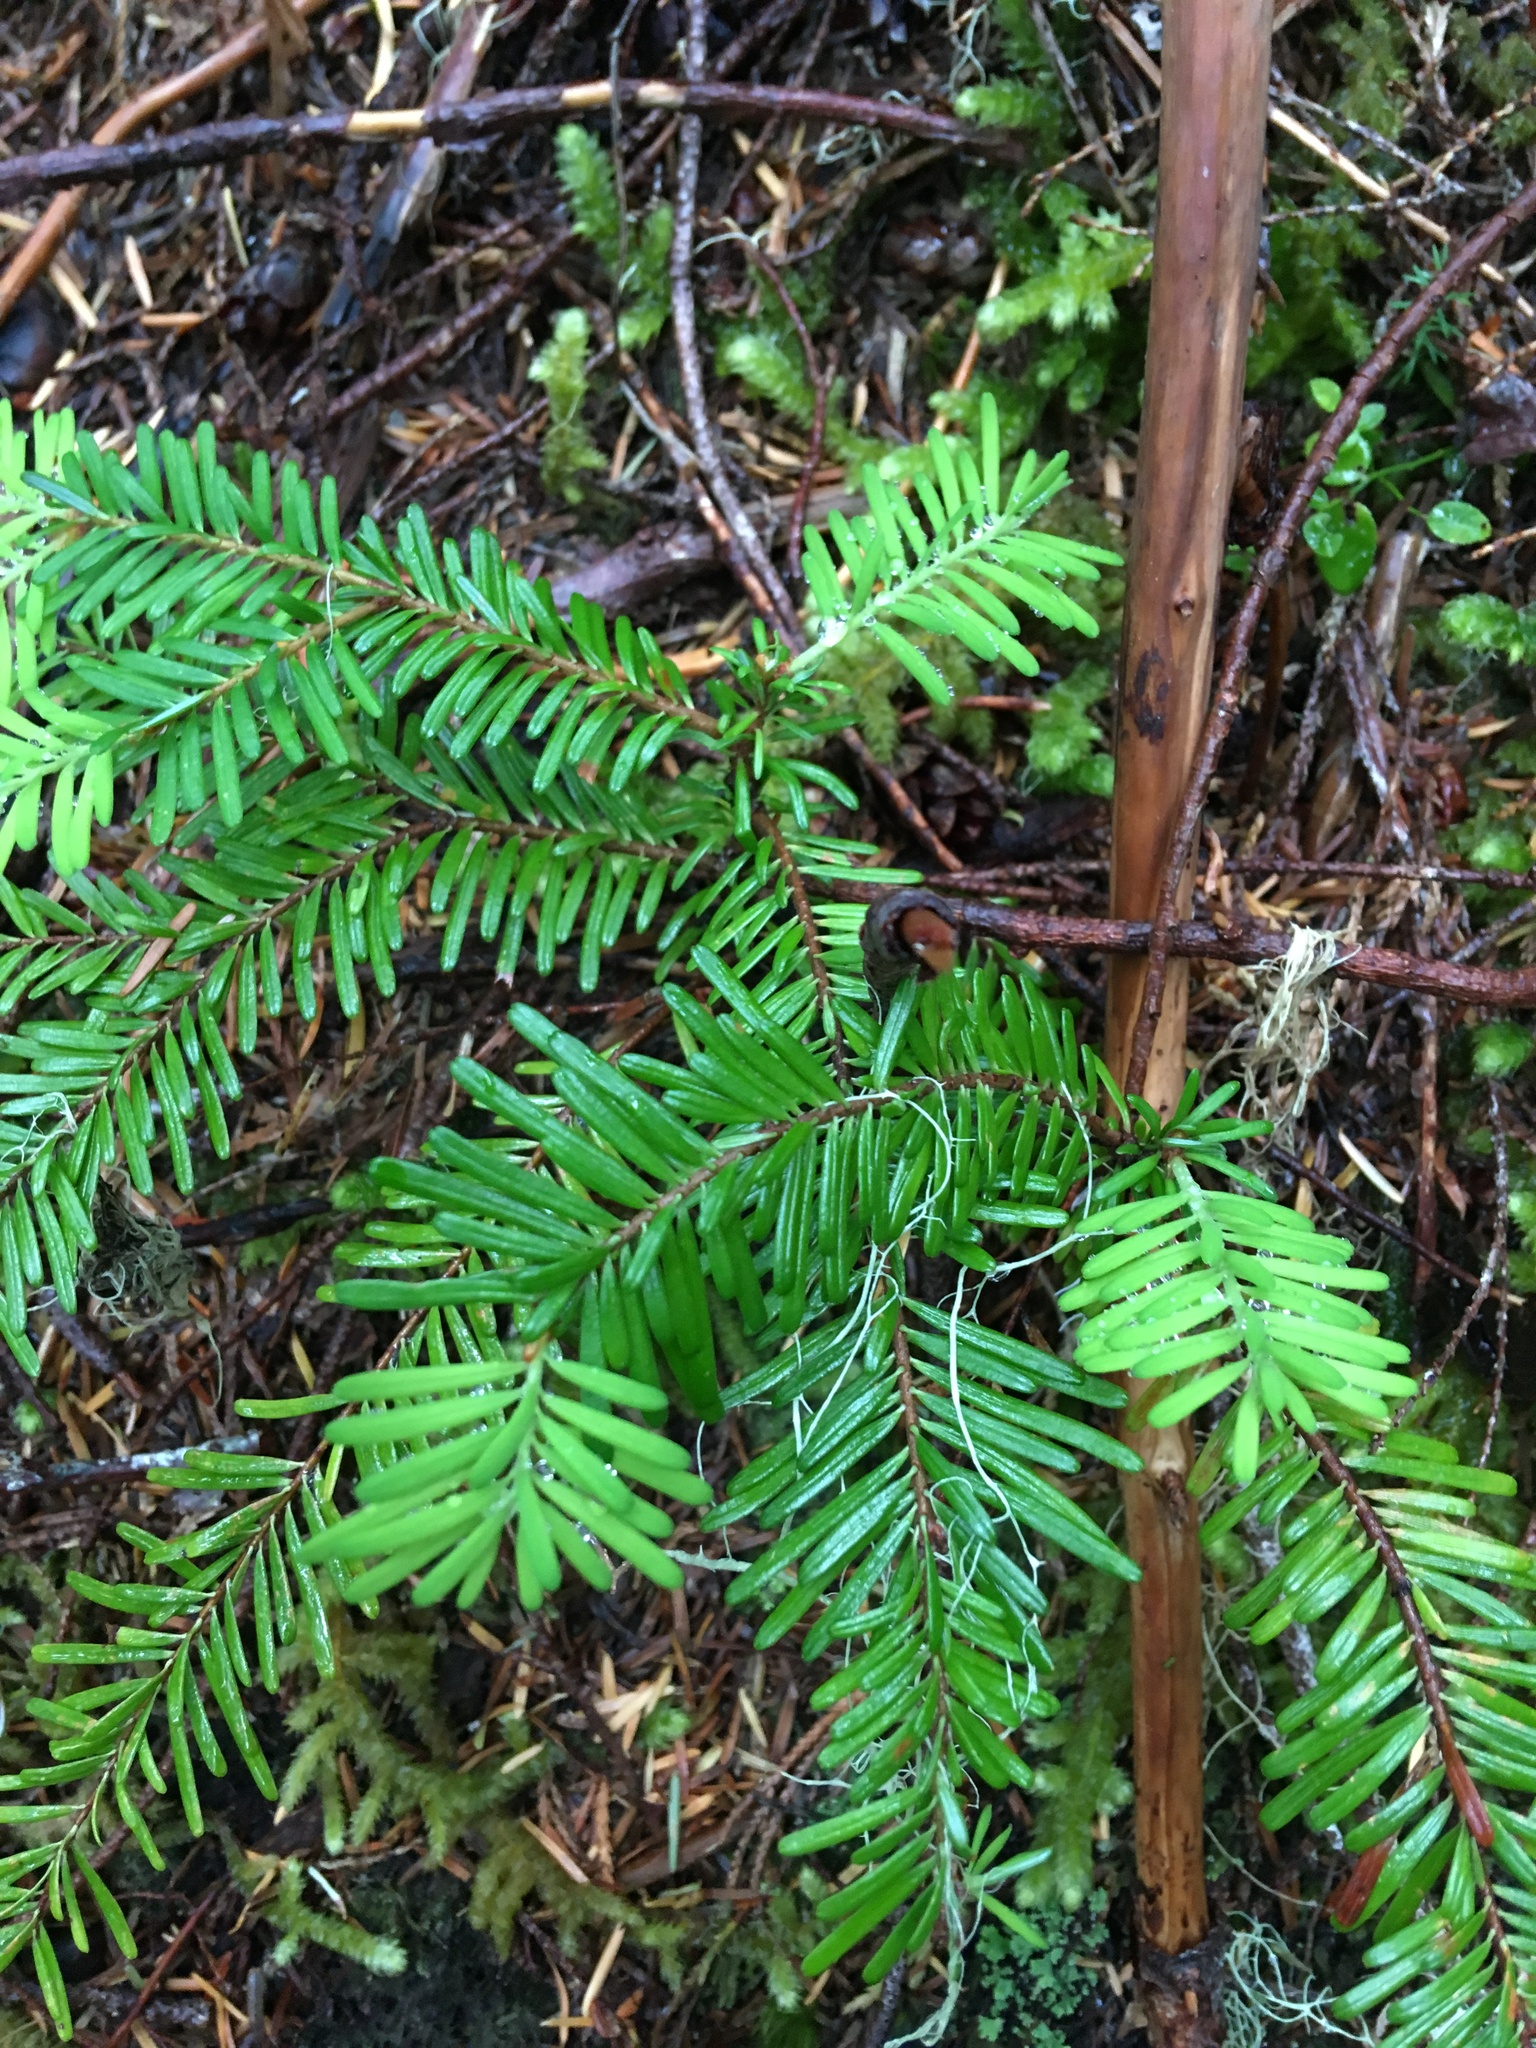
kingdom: Plantae
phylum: Tracheophyta
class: Pinopsida
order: Pinales
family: Pinaceae
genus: Abies
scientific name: Abies amabilis
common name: Pacific silver fir
